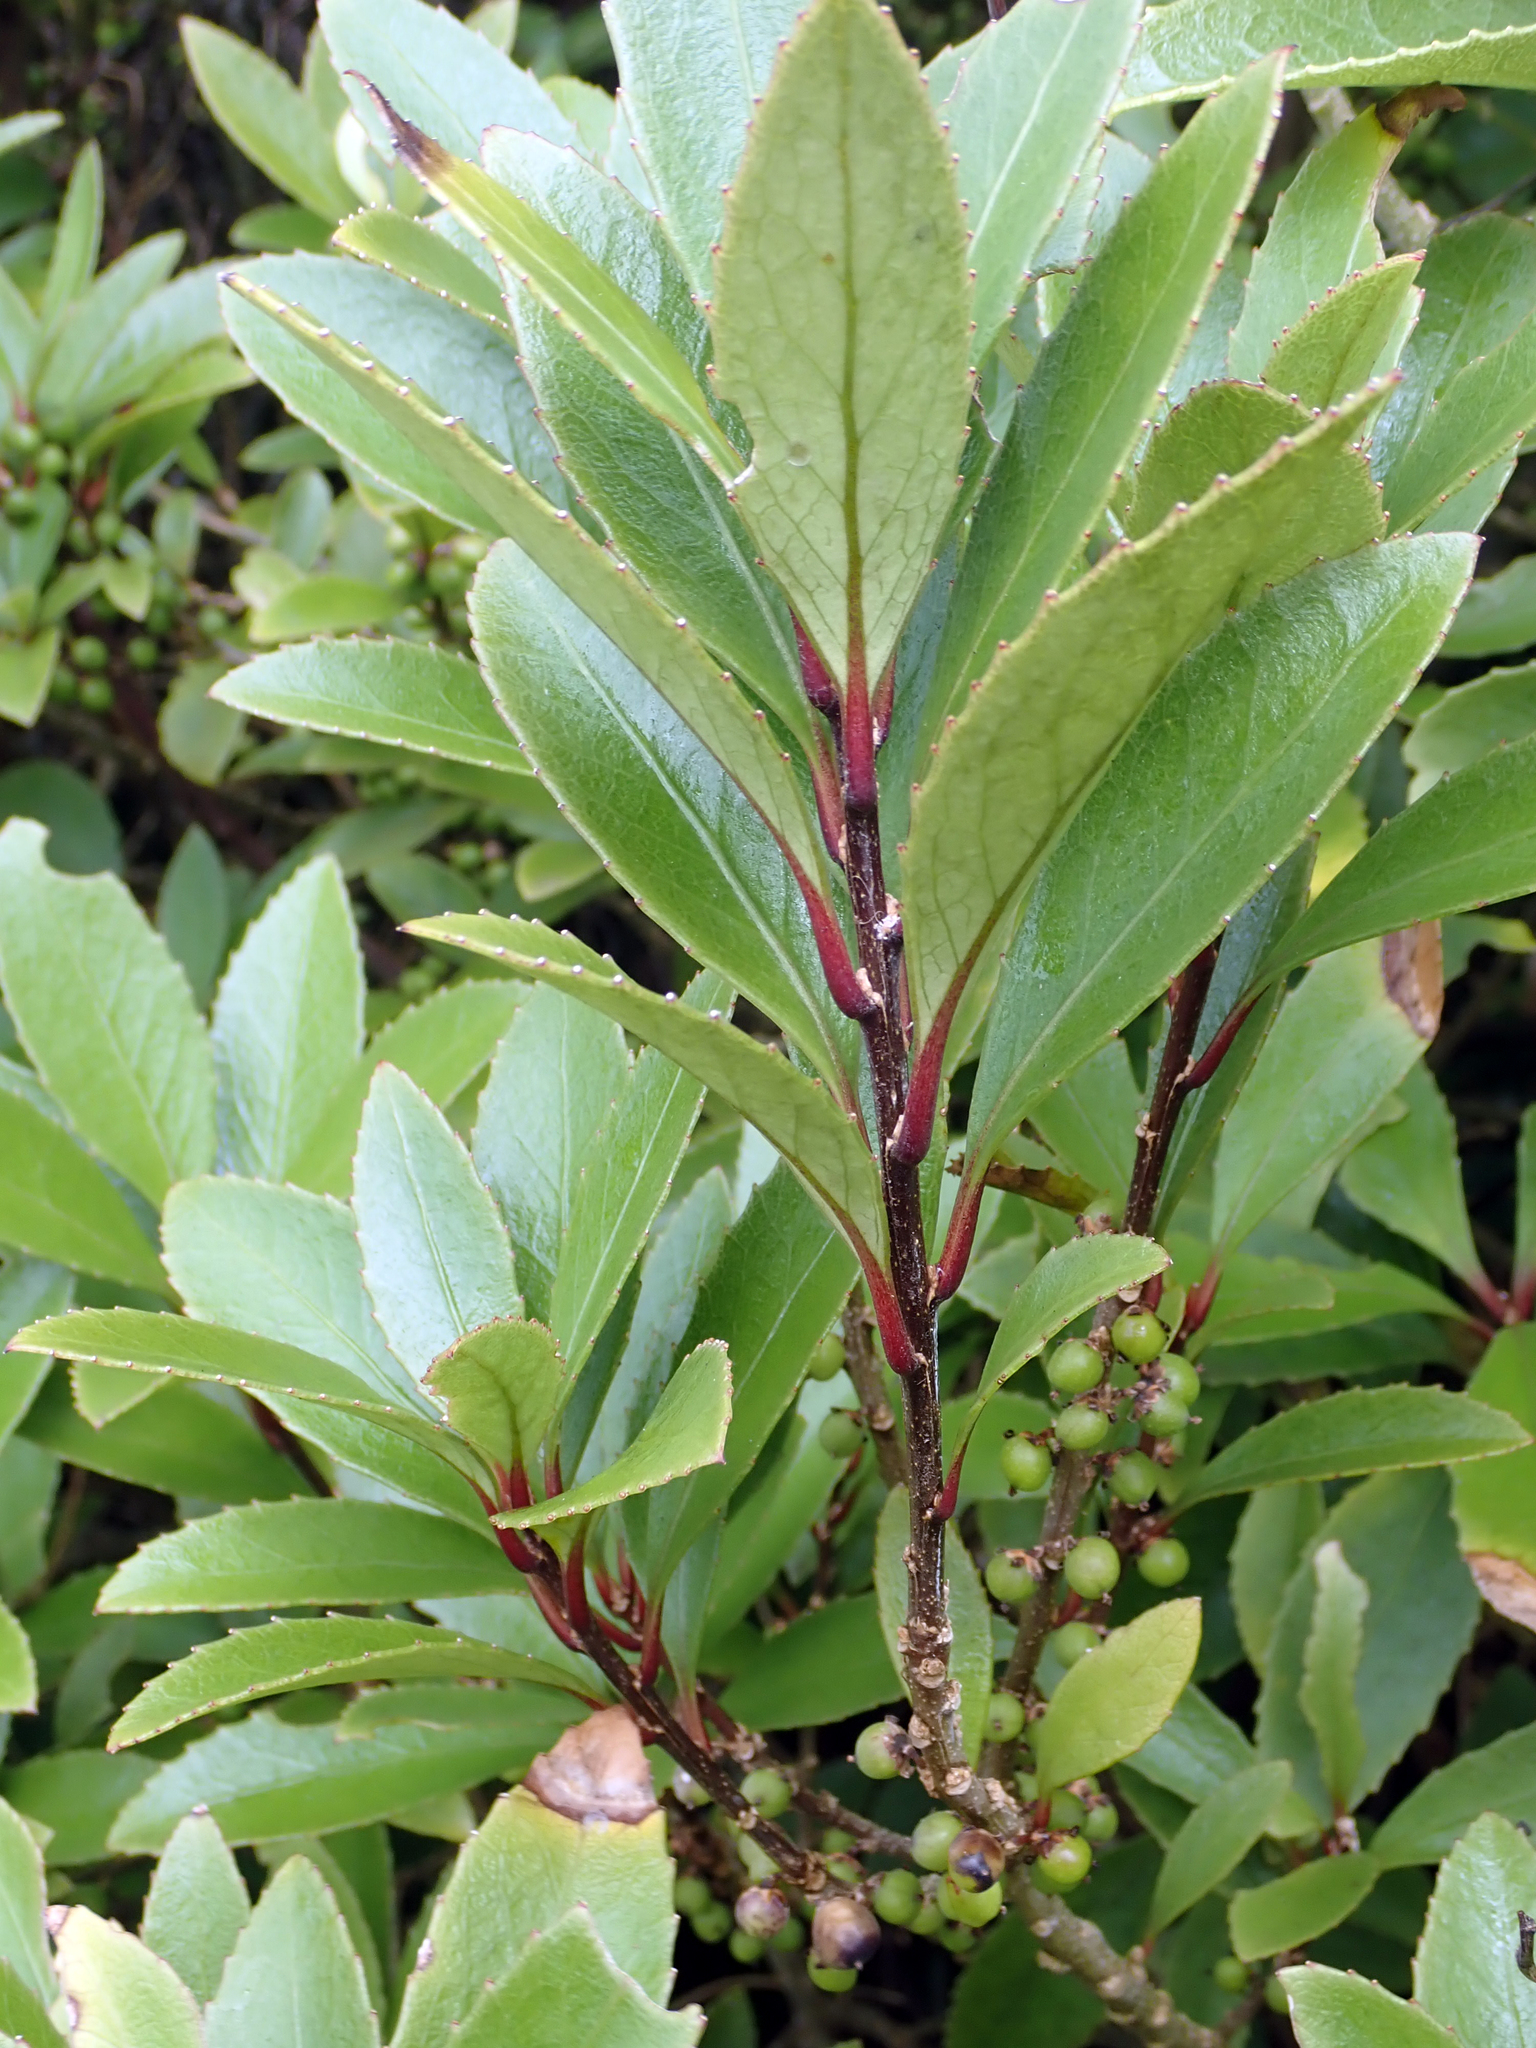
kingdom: Plantae
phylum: Tracheophyta
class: Magnoliopsida
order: Malpighiales
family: Violaceae
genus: Melicytus
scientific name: Melicytus chathamicus
